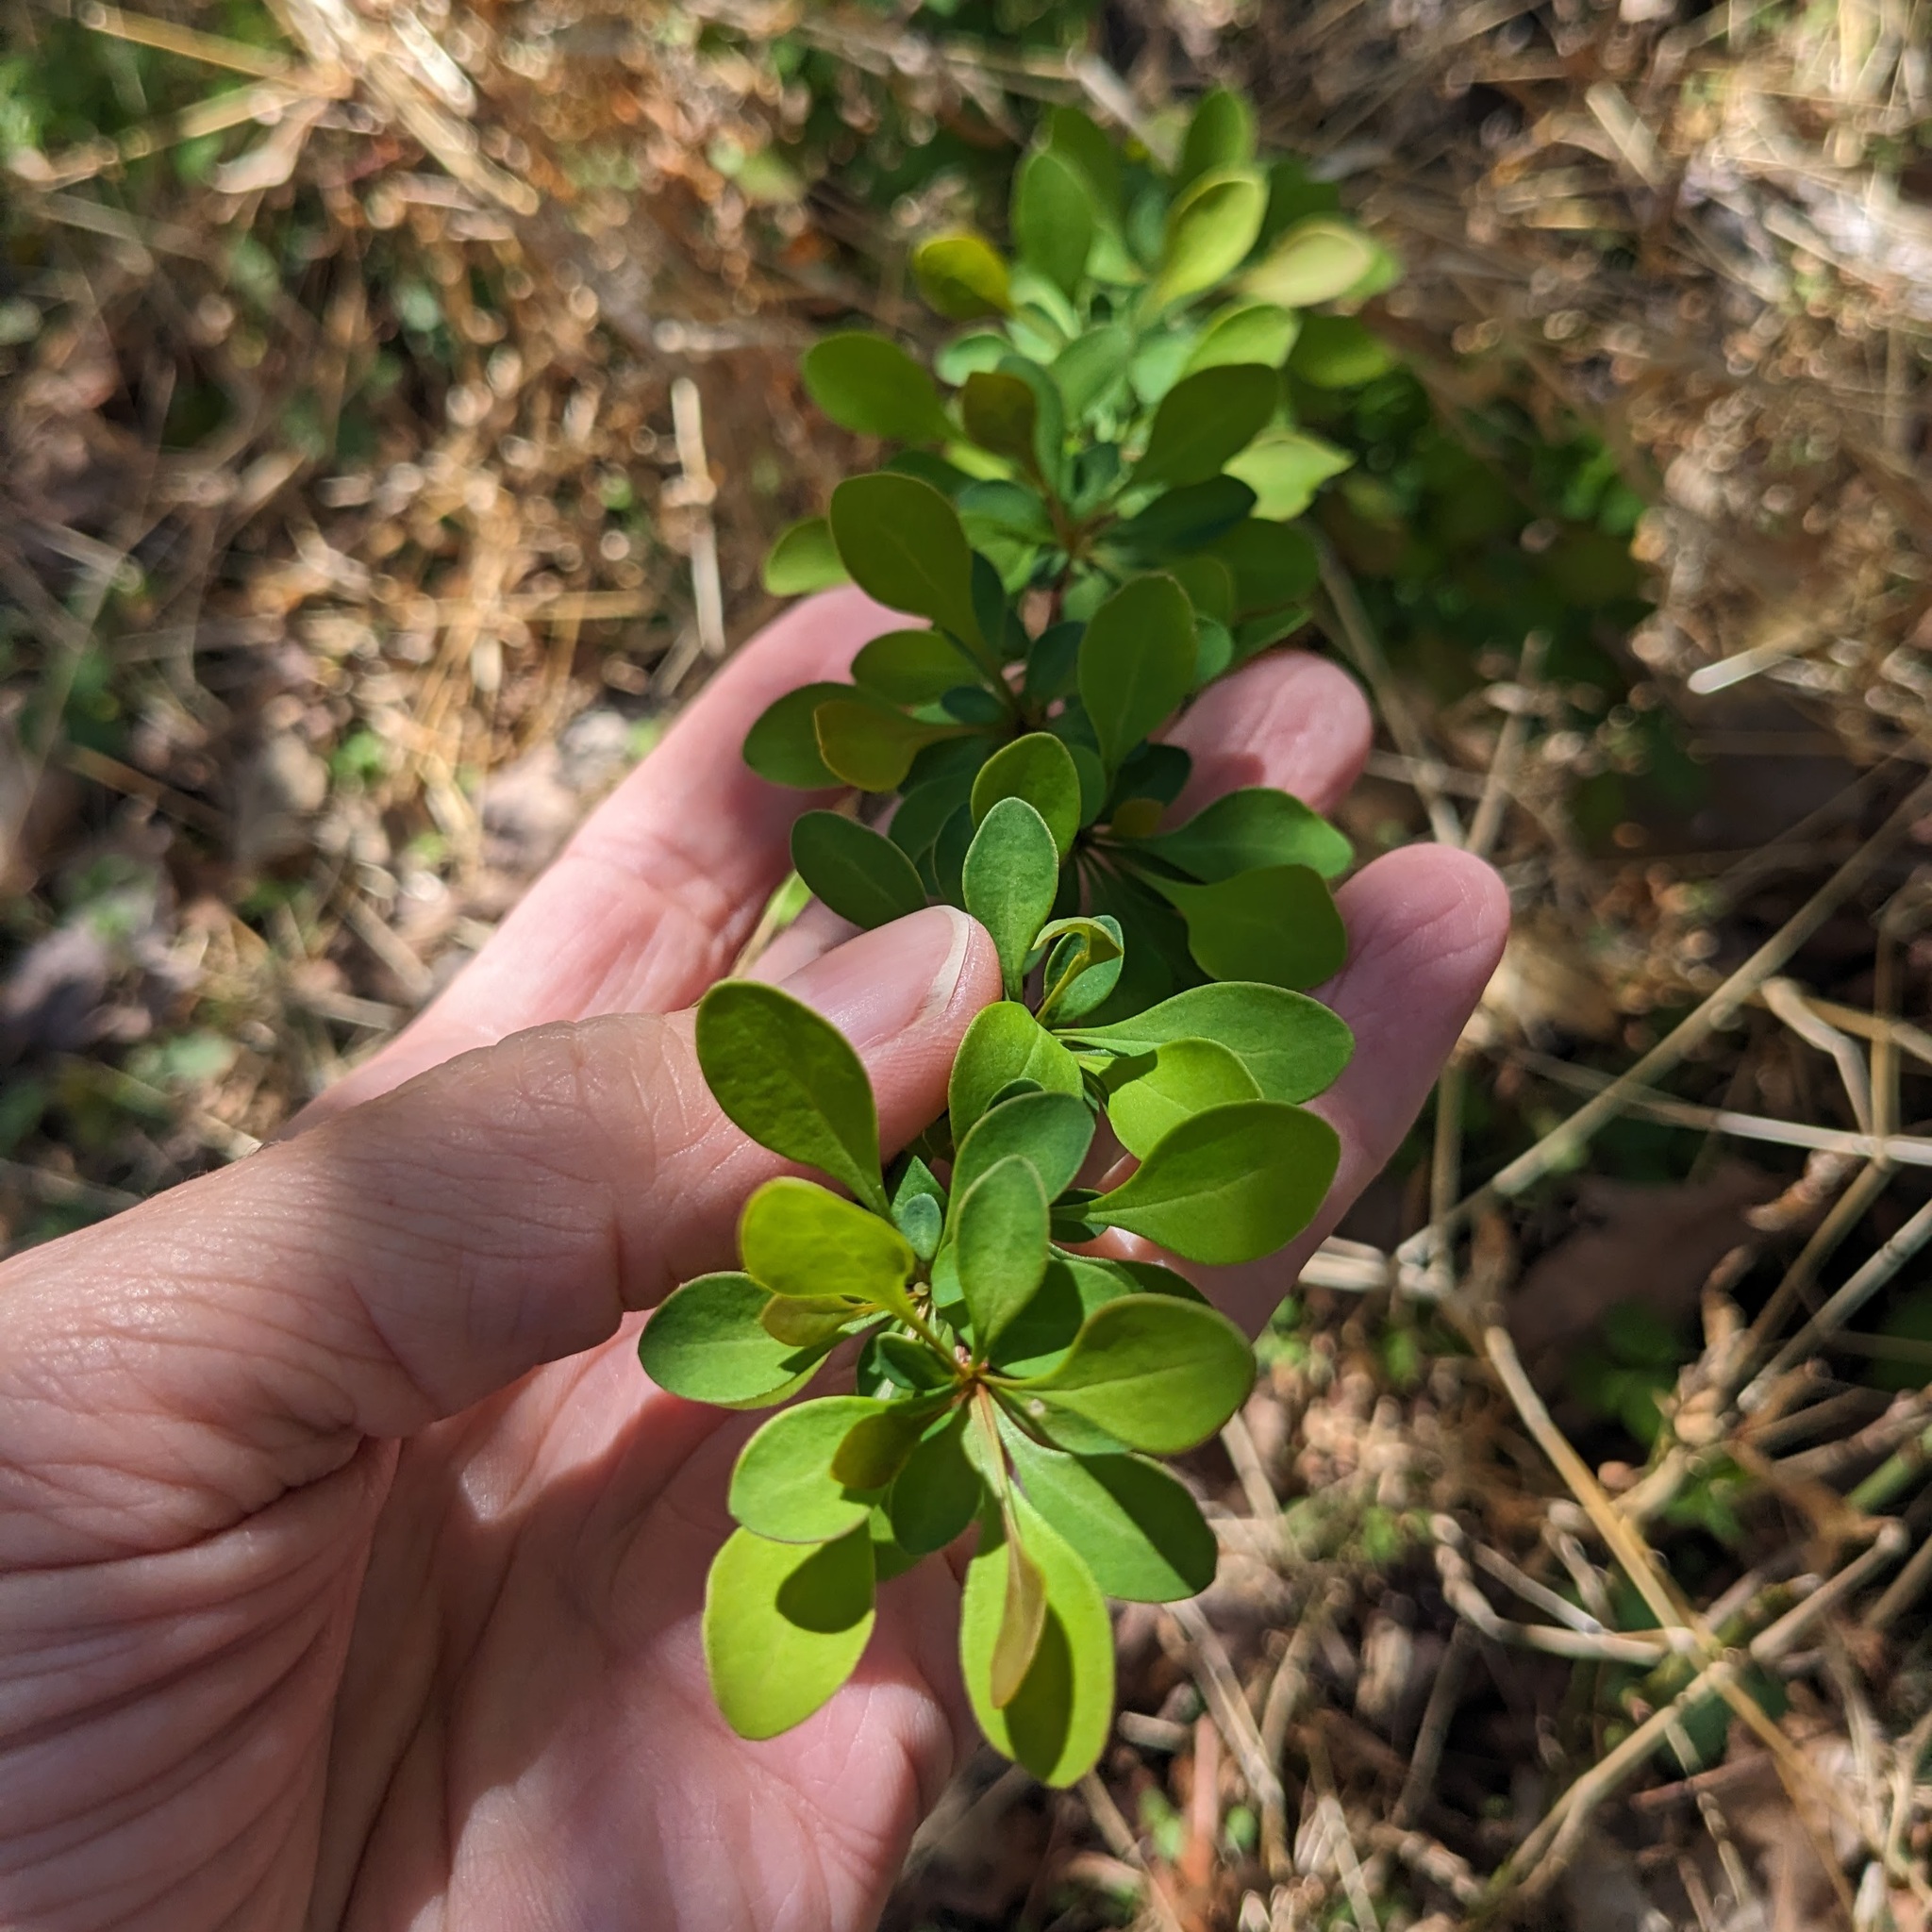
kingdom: Plantae
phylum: Tracheophyta
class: Magnoliopsida
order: Ranunculales
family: Berberidaceae
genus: Berberis
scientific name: Berberis thunbergii
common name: Japanese barberry
